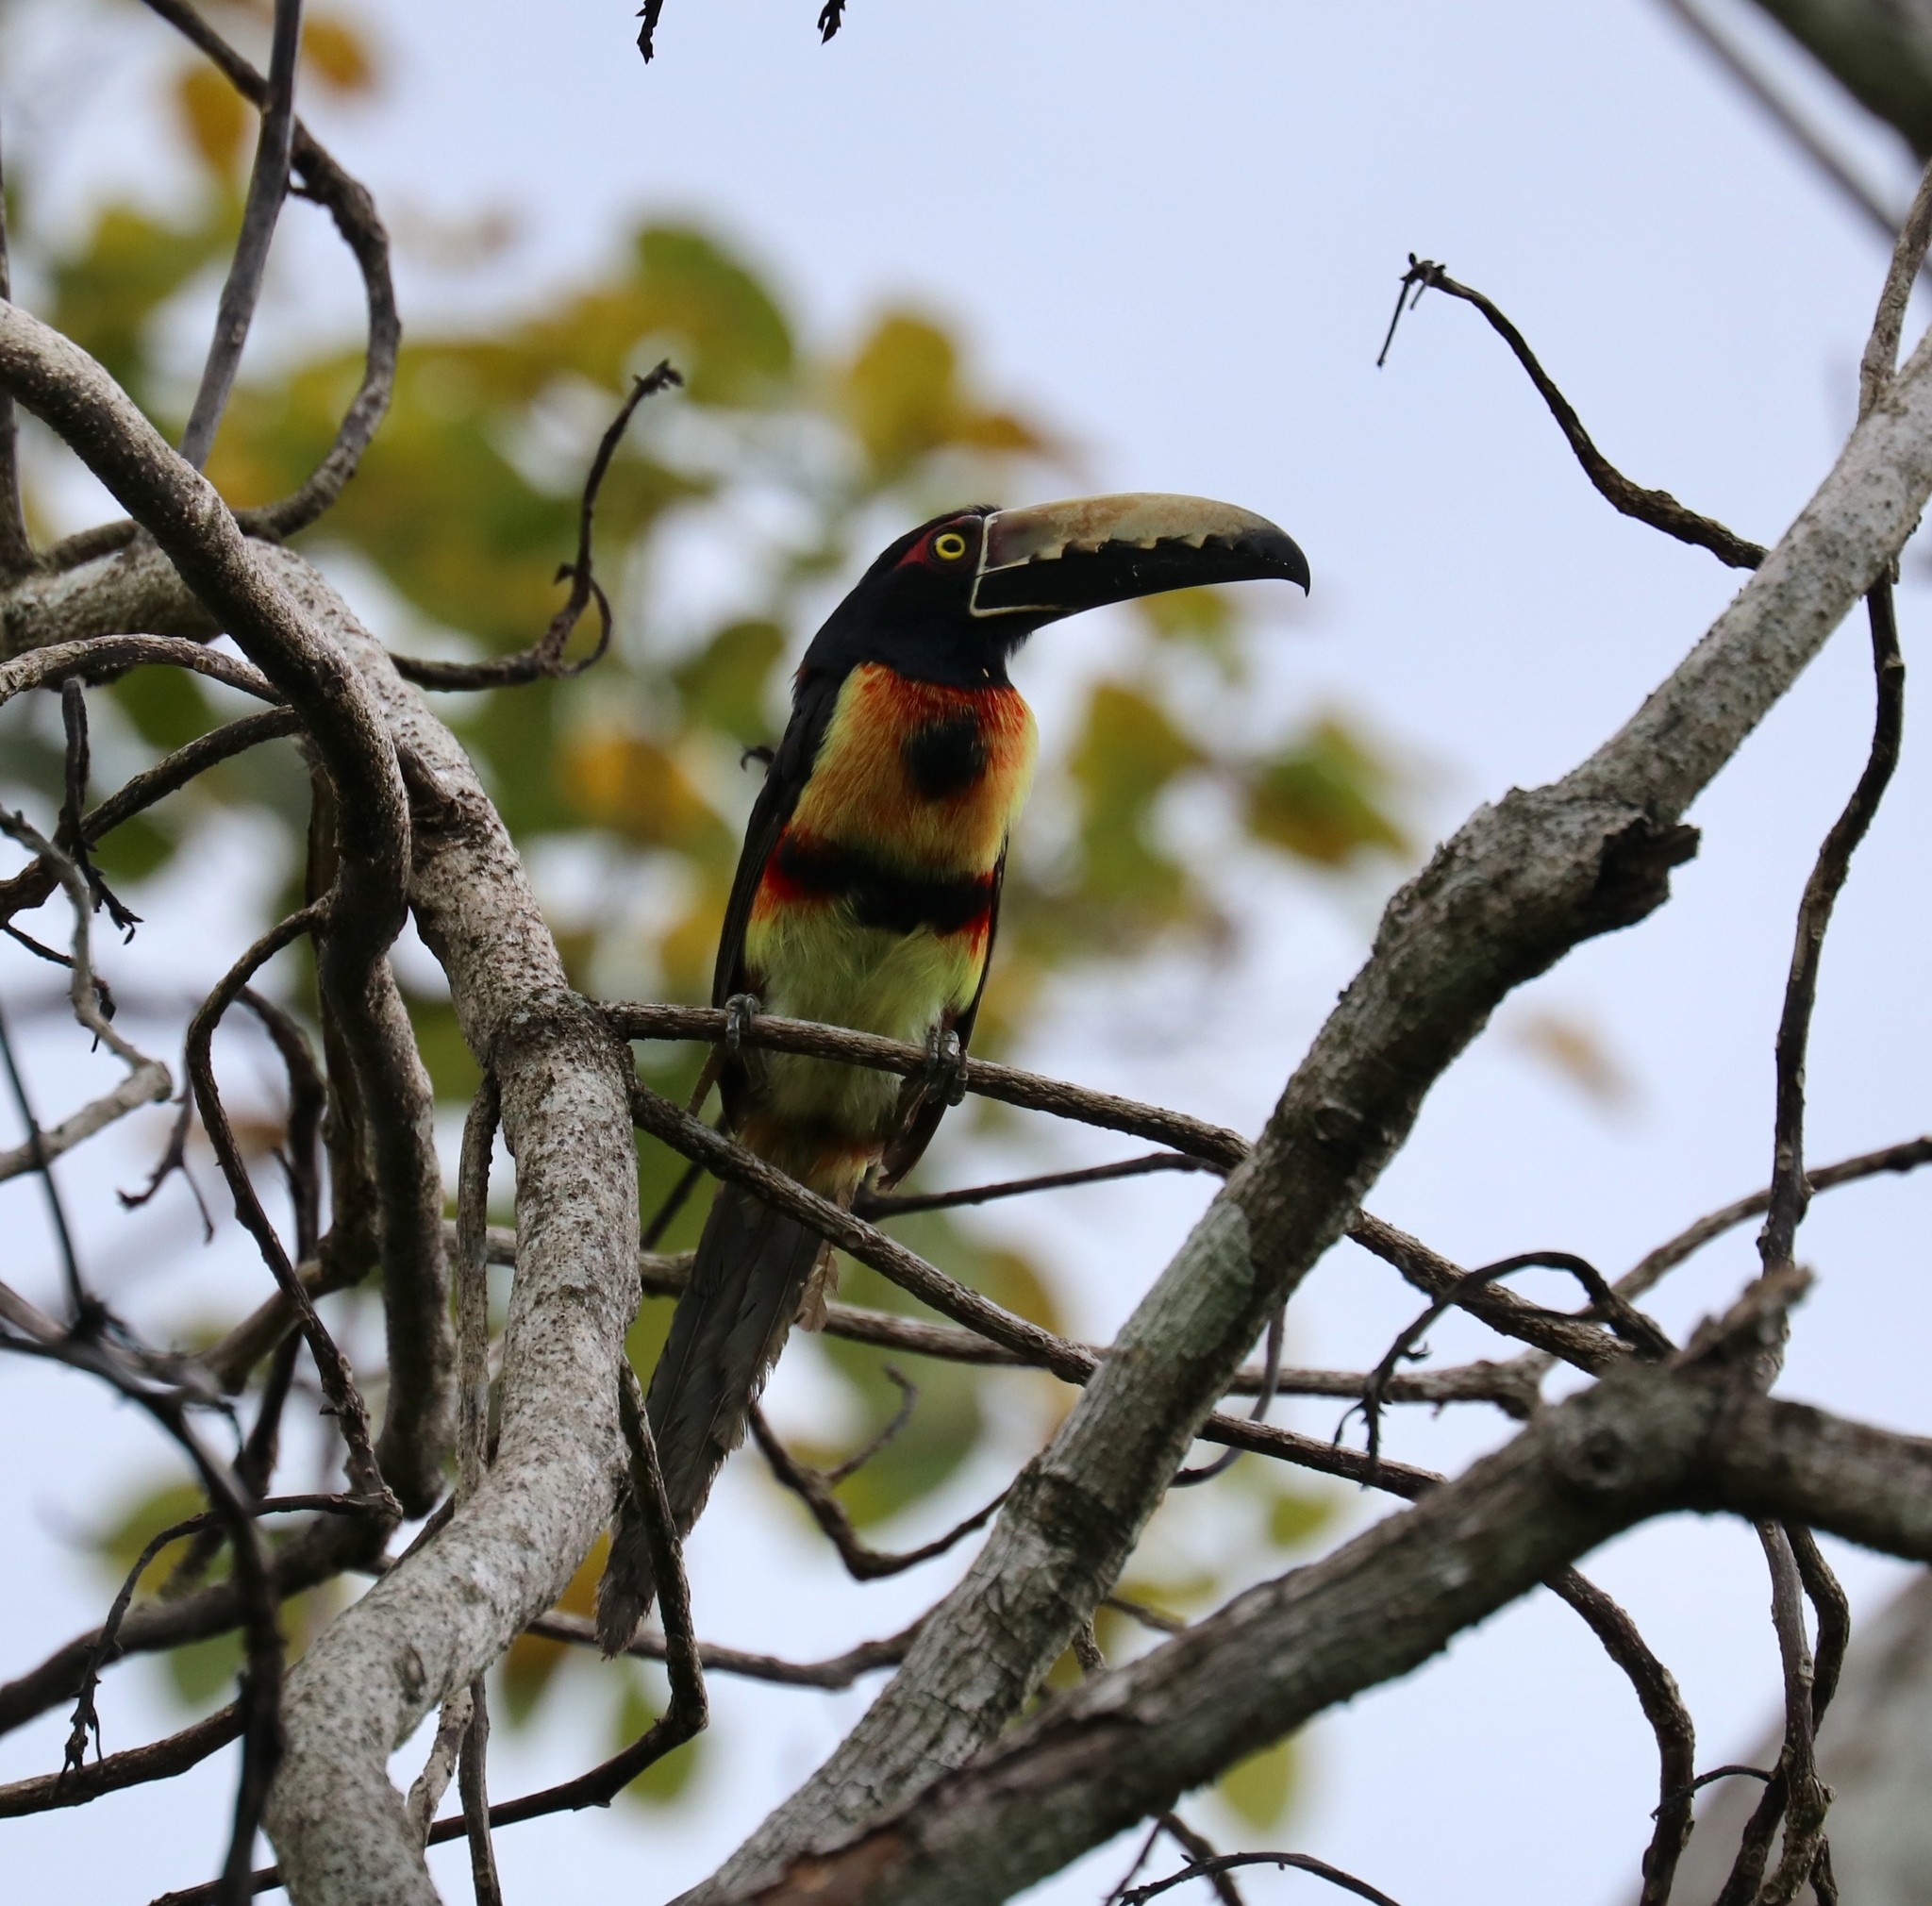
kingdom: Animalia
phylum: Chordata
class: Aves
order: Piciformes
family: Ramphastidae
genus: Pteroglossus
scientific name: Pteroglossus torquatus
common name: Collared aracari
